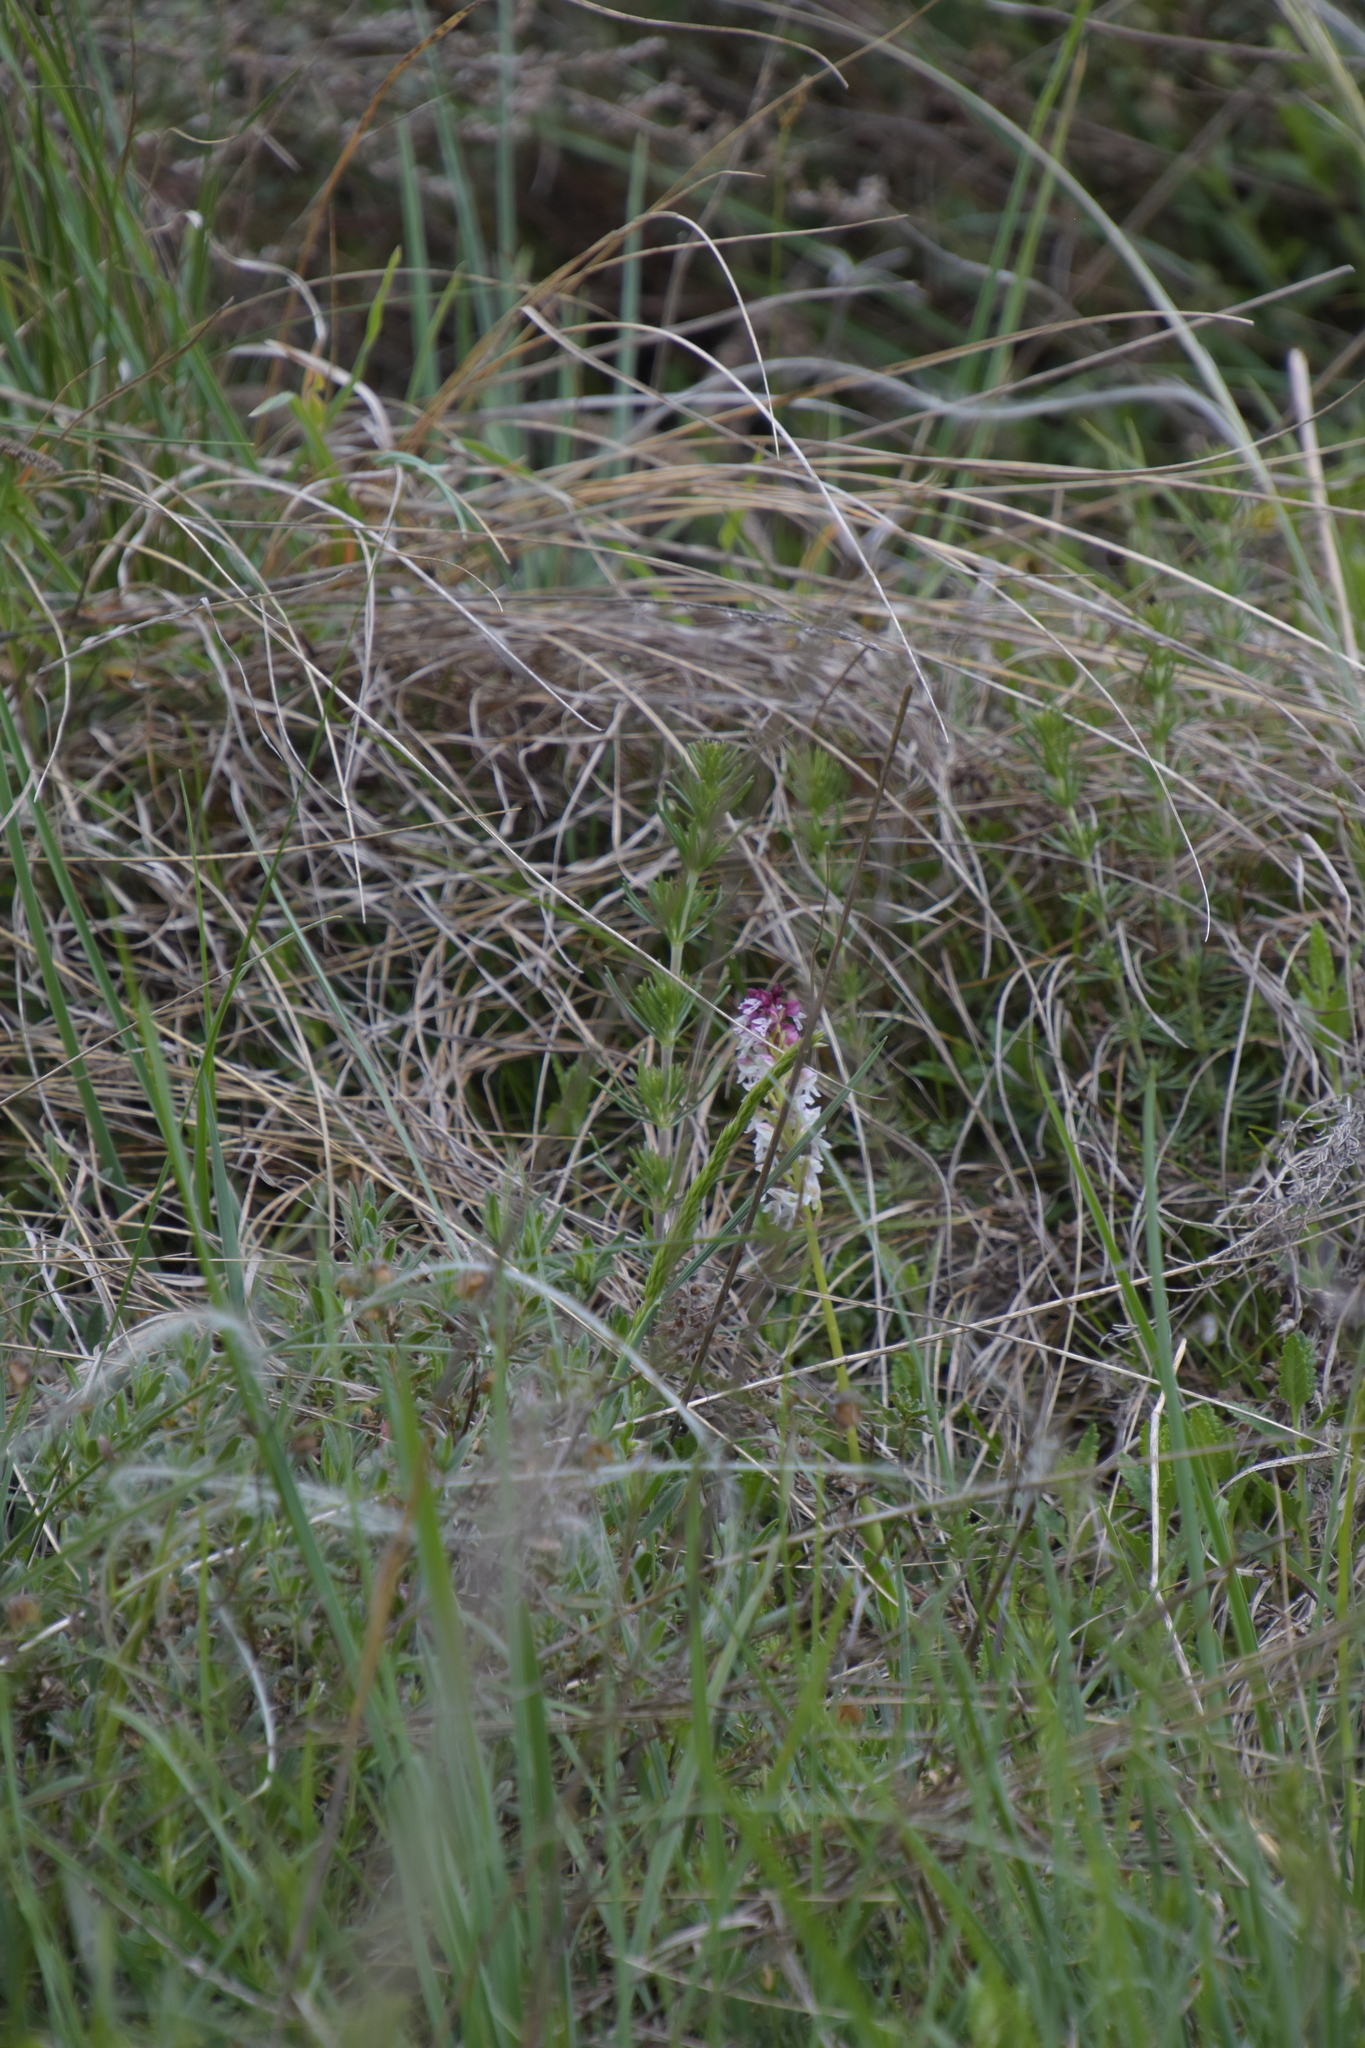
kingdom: Plantae
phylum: Tracheophyta
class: Liliopsida
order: Asparagales
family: Orchidaceae
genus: Neotinea
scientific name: Neotinea ustulata
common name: Burnt orchid
